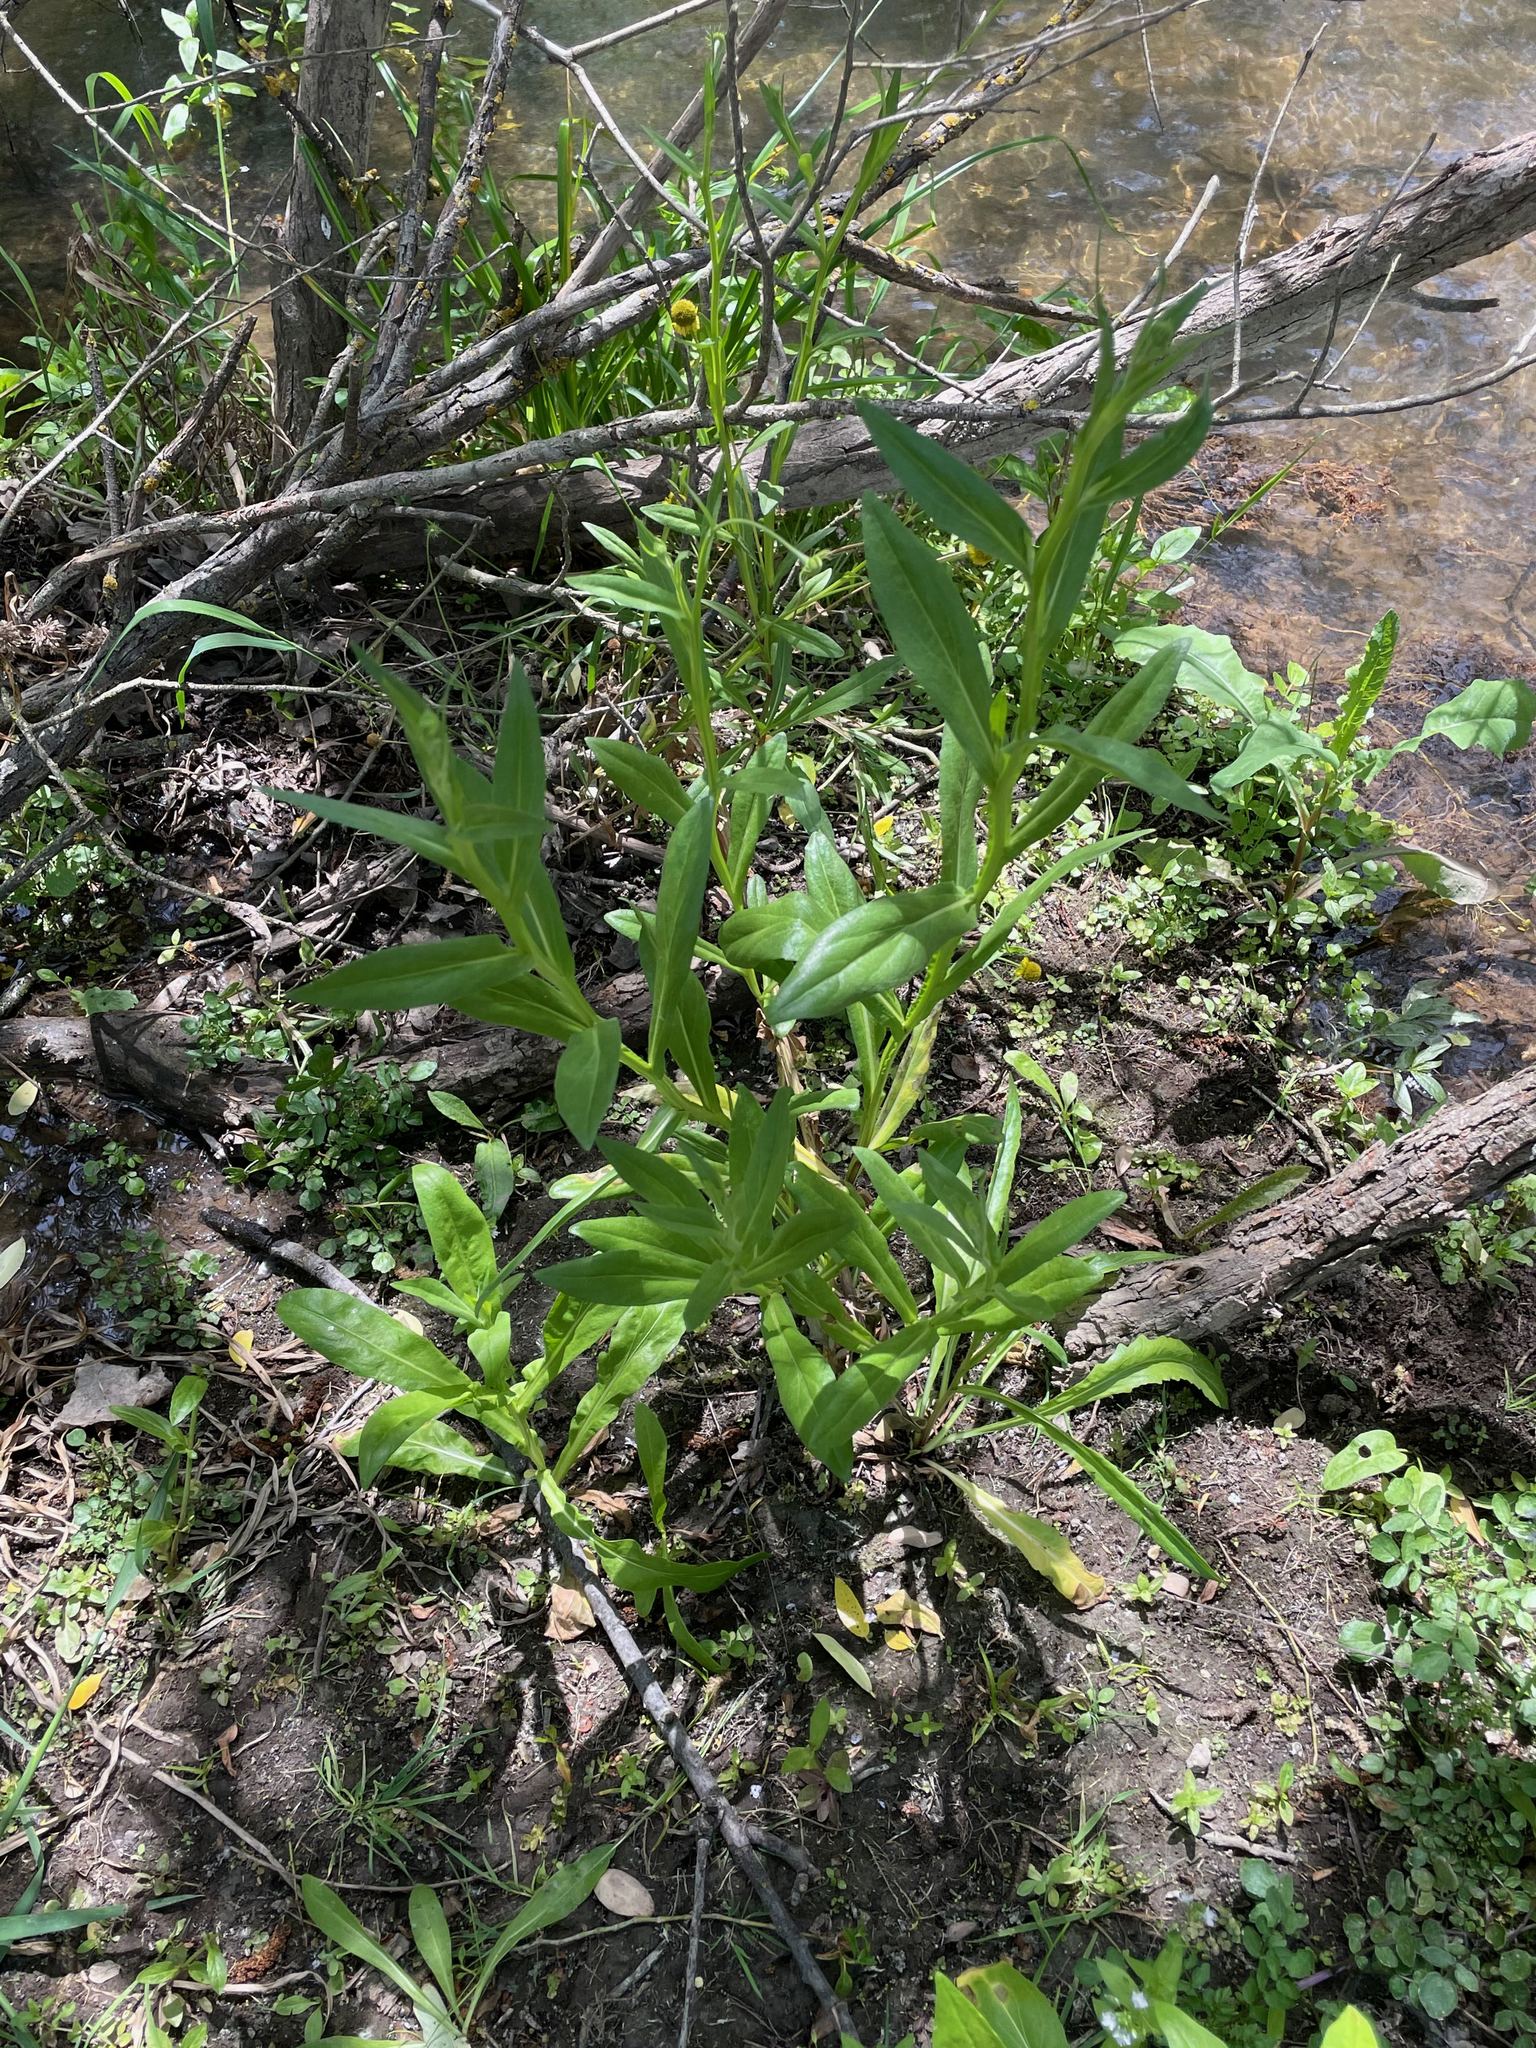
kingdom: Plantae
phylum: Tracheophyta
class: Magnoliopsida
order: Asterales
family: Asteraceae
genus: Helenium
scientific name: Helenium puberulum
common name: Sneezewort
